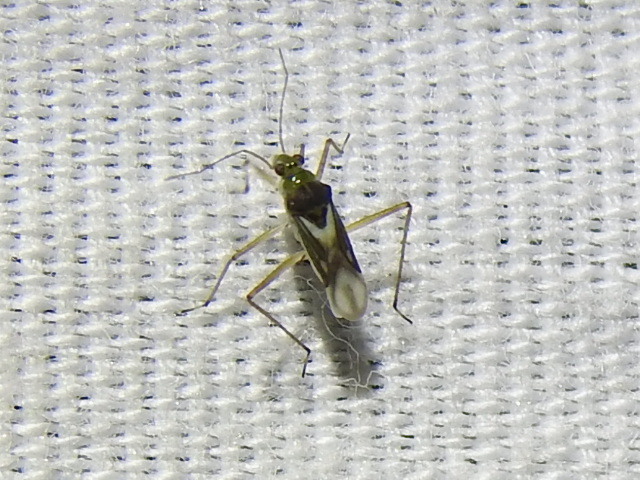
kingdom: Animalia
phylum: Arthropoda
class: Insecta
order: Hemiptera
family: Mesoveliidae
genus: Mesovelia
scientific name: Mesovelia mulsanti
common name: Water treaders
